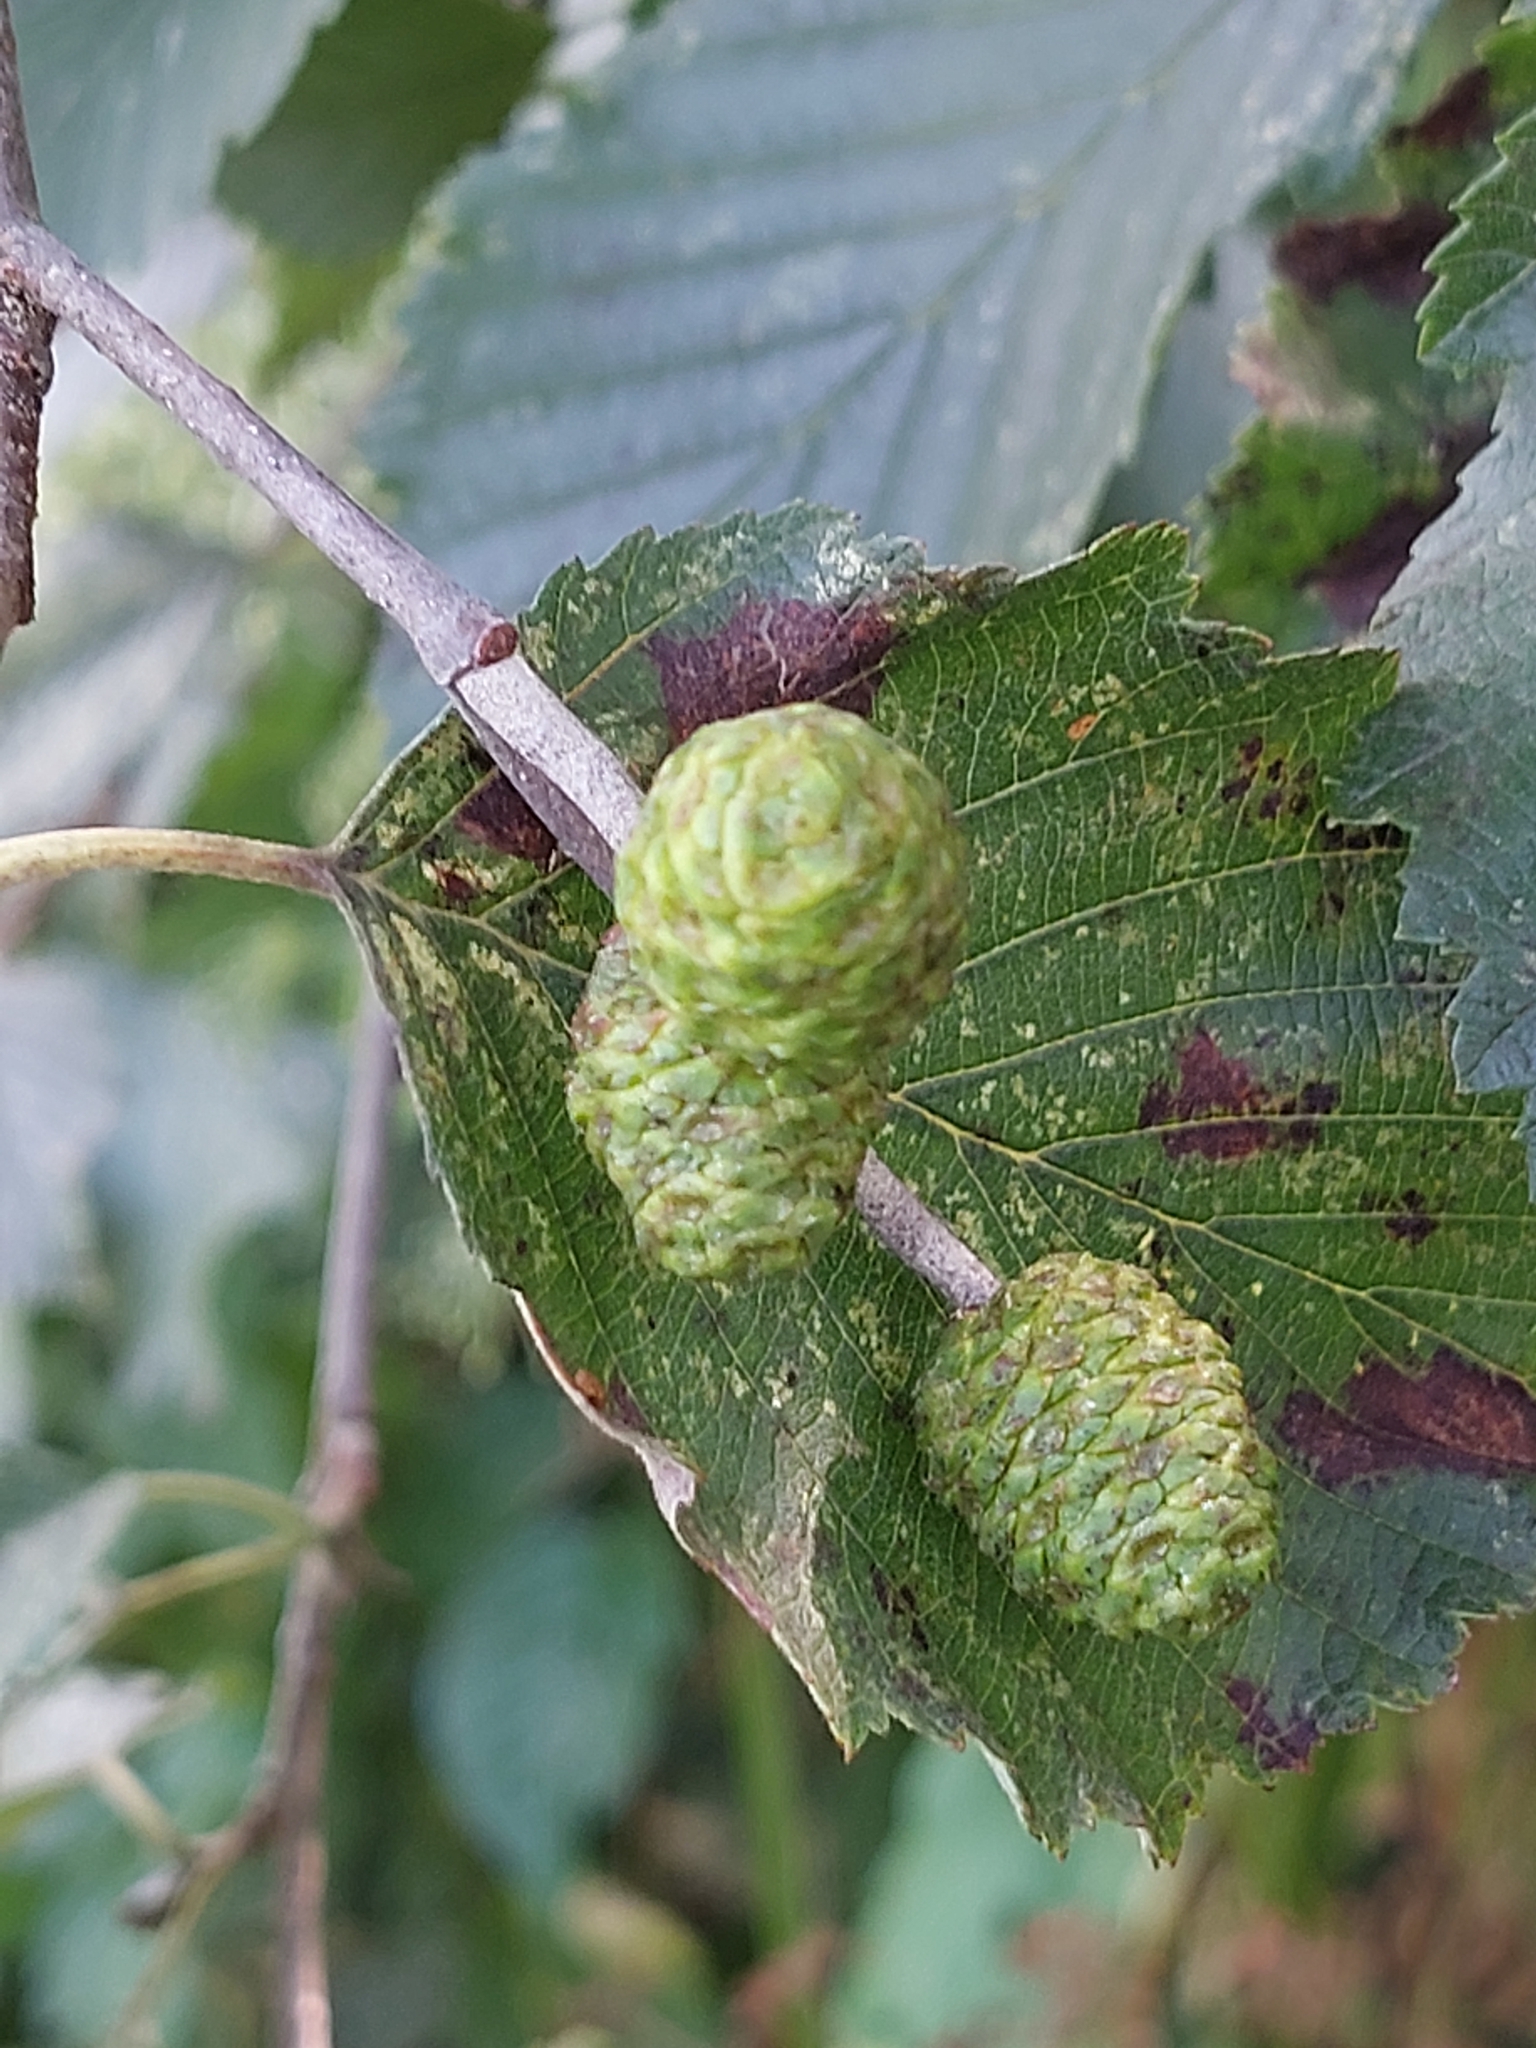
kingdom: Plantae
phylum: Tracheophyta
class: Magnoliopsida
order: Fagales
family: Betulaceae
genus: Alnus
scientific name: Alnus incana
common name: Grey alder
